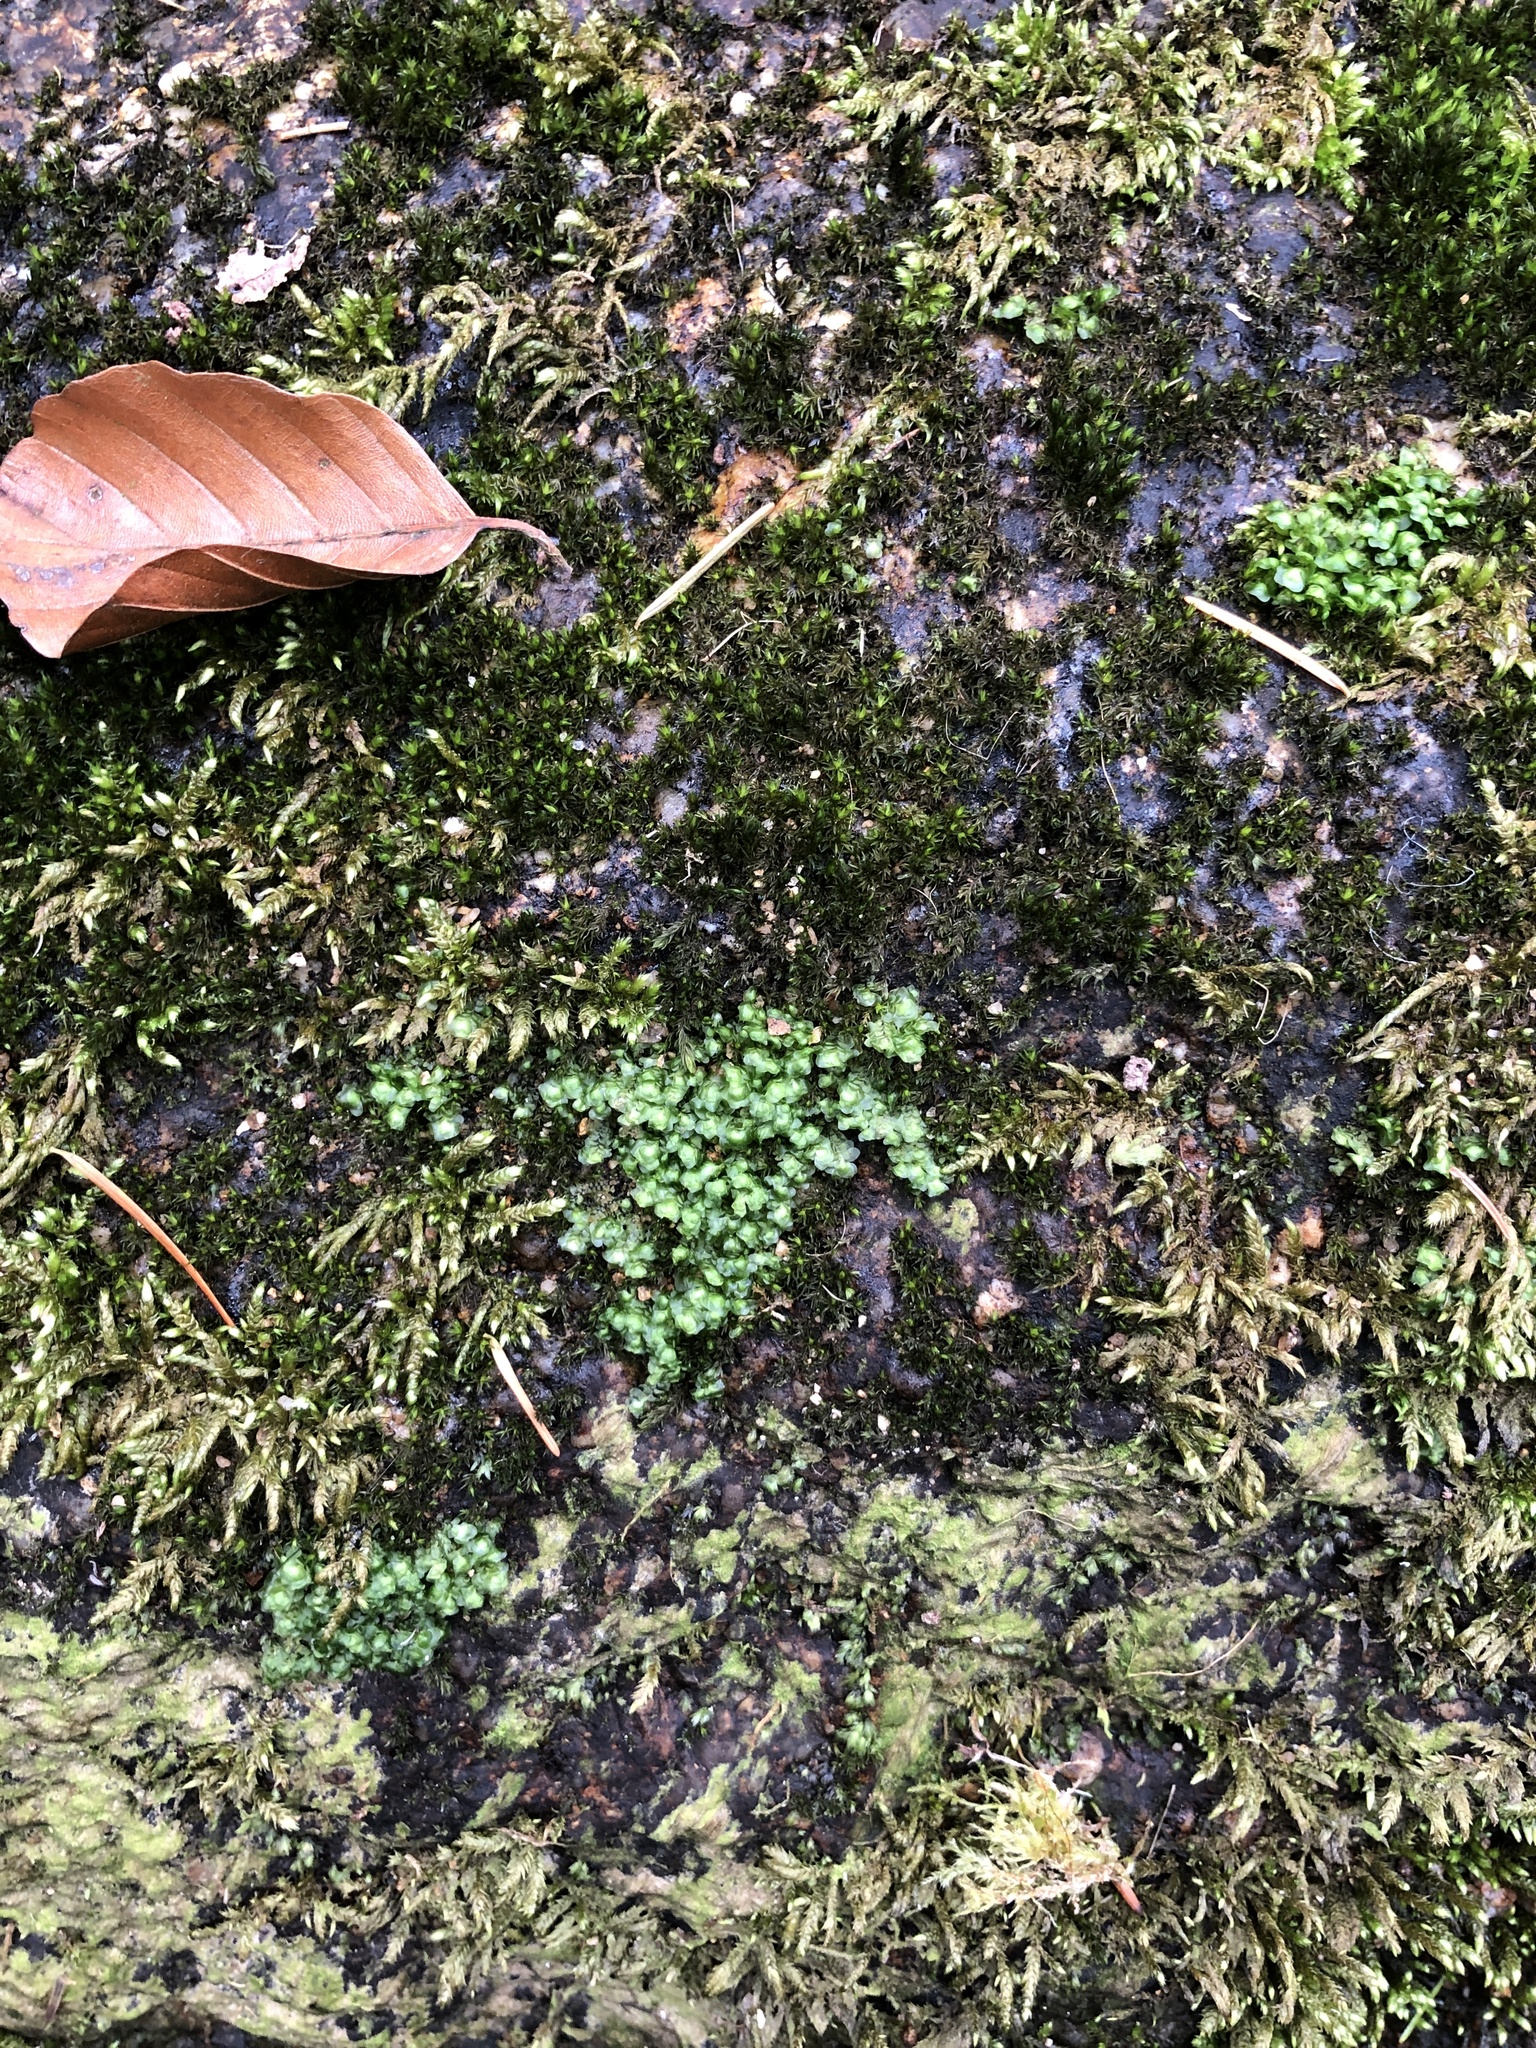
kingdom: Plantae
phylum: Marchantiophyta
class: Jungermanniopsida
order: Jungermanniales
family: Scapaniaceae
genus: Scapania
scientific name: Scapania undulata
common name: Water earwort
